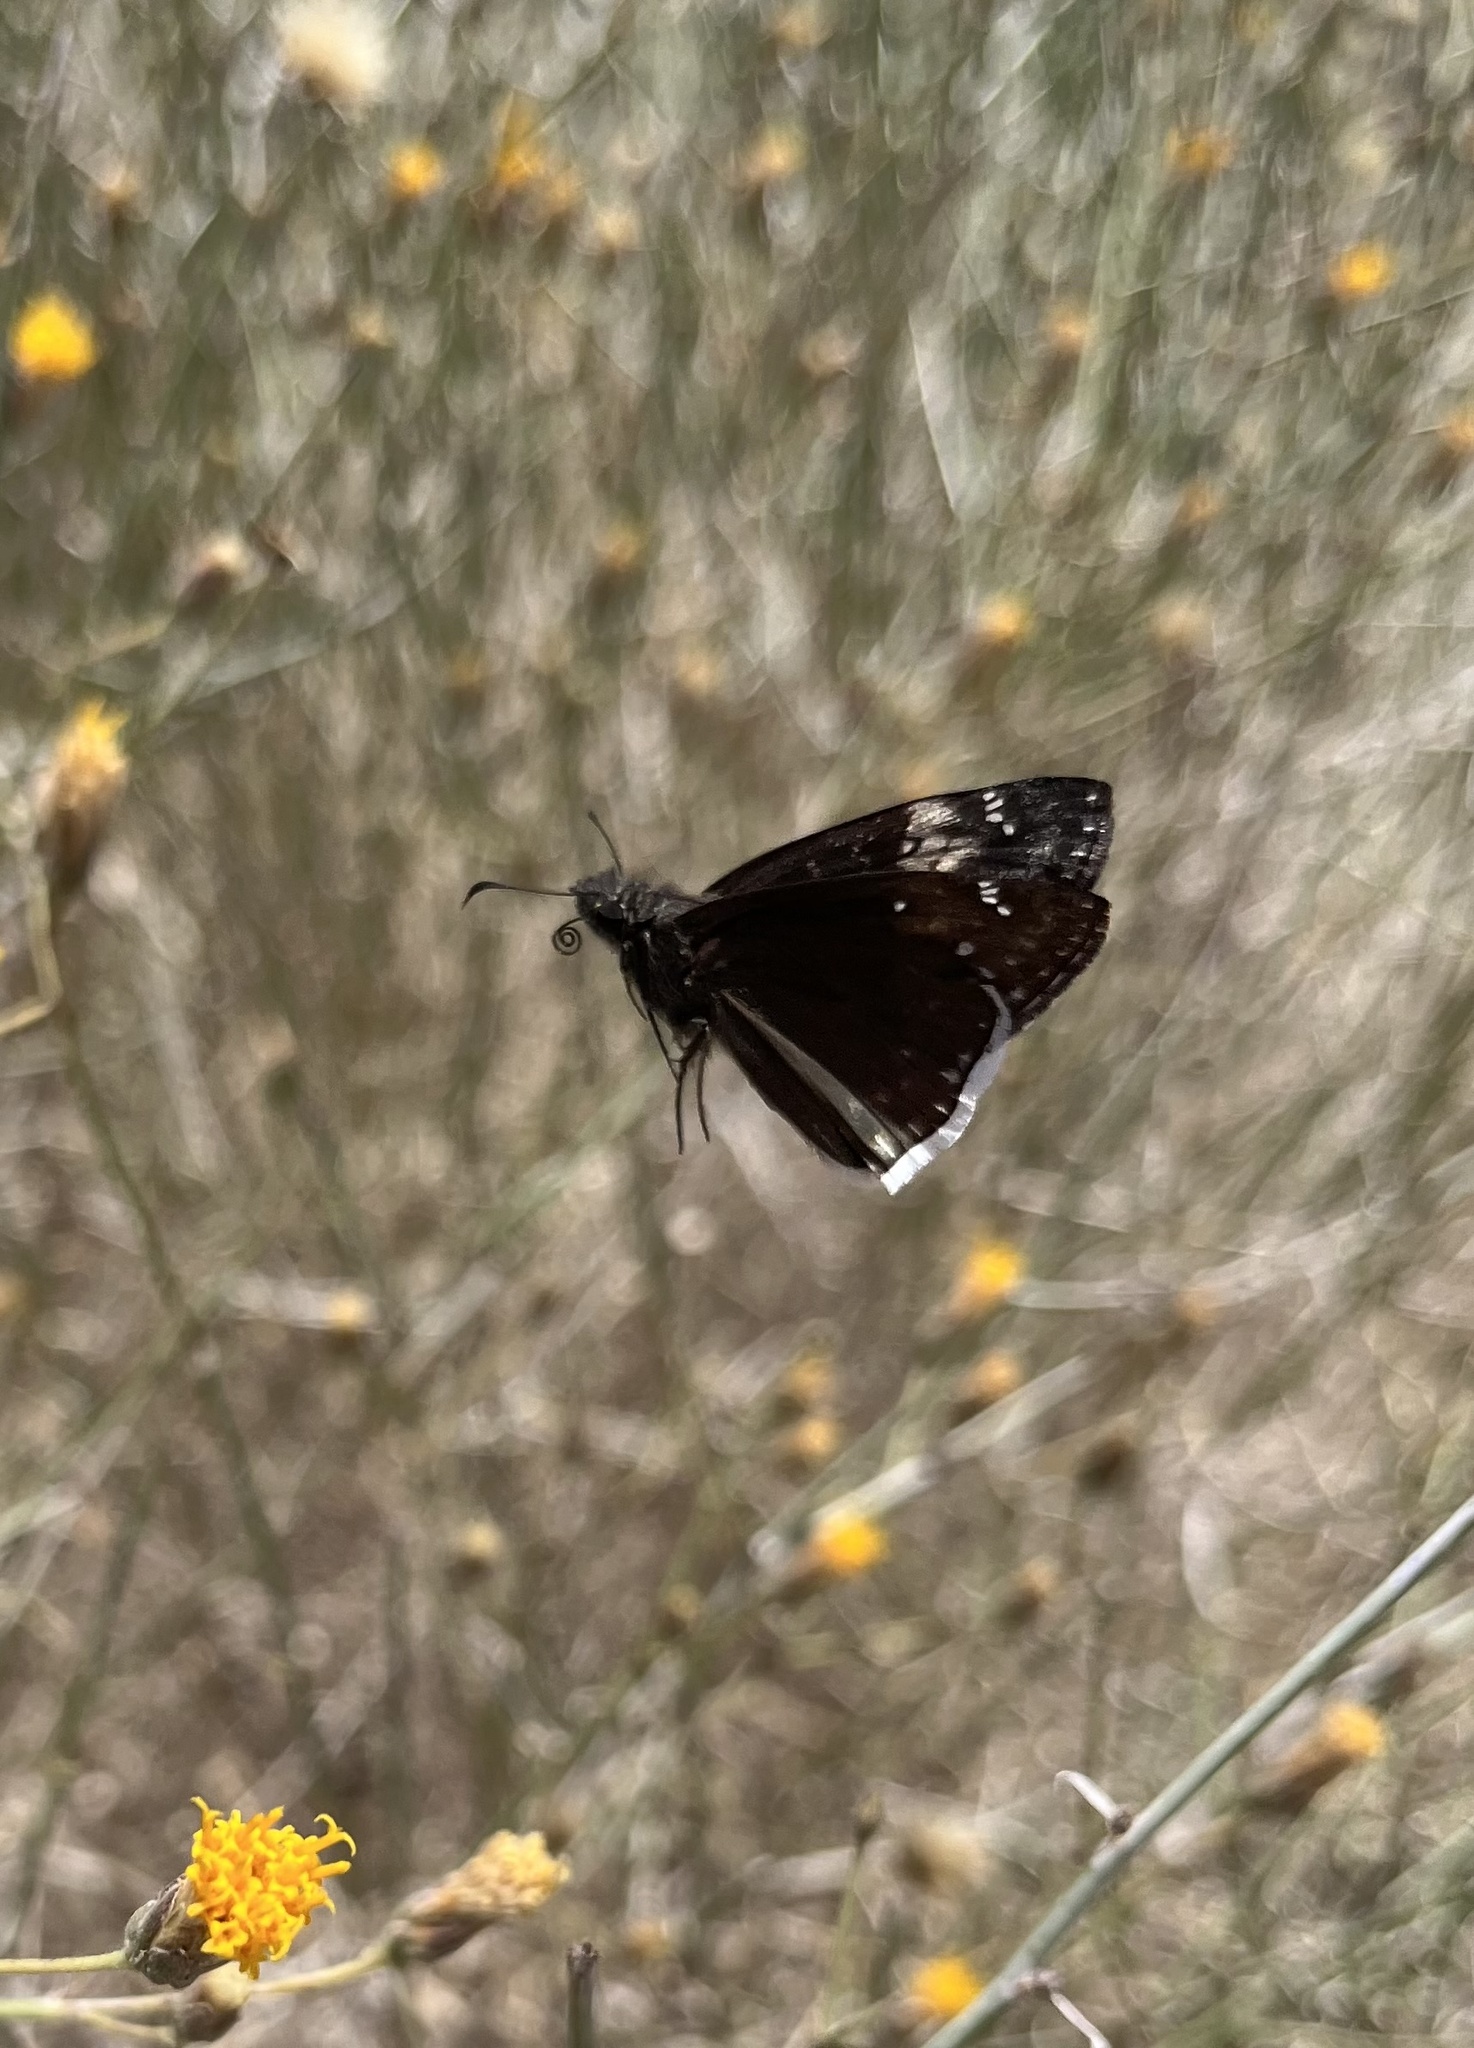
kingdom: Animalia
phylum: Arthropoda
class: Insecta
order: Lepidoptera
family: Hesperiidae
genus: Erynnis
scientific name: Erynnis funeralis
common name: Funereal duskywing
